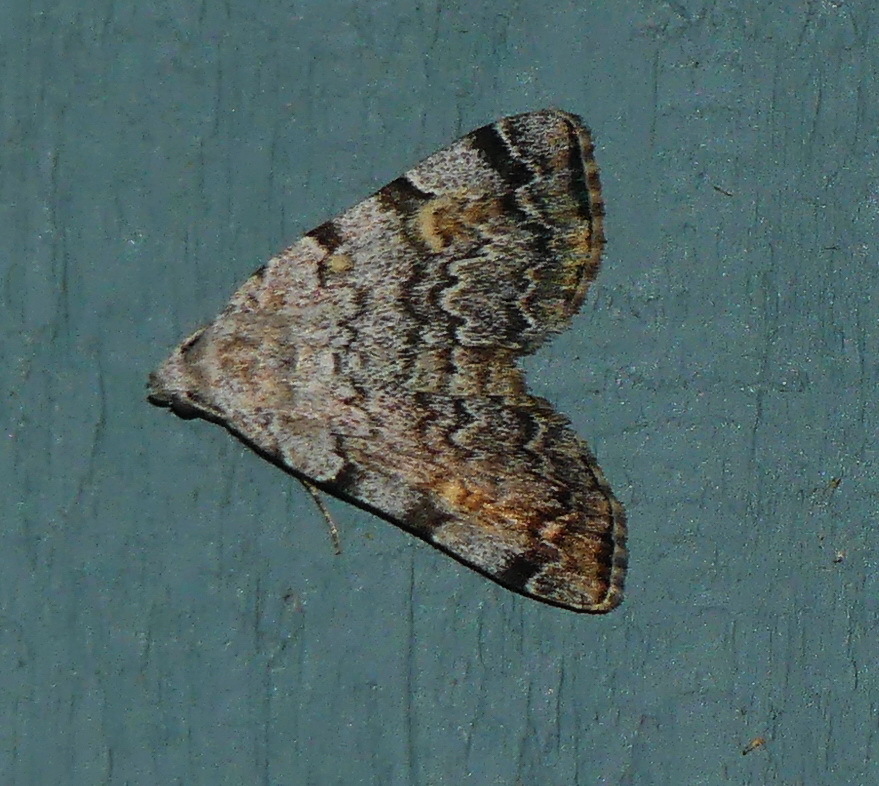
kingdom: Animalia
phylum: Arthropoda
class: Insecta
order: Lepidoptera
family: Erebidae
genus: Idia
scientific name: Idia americalis
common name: American idia moth
